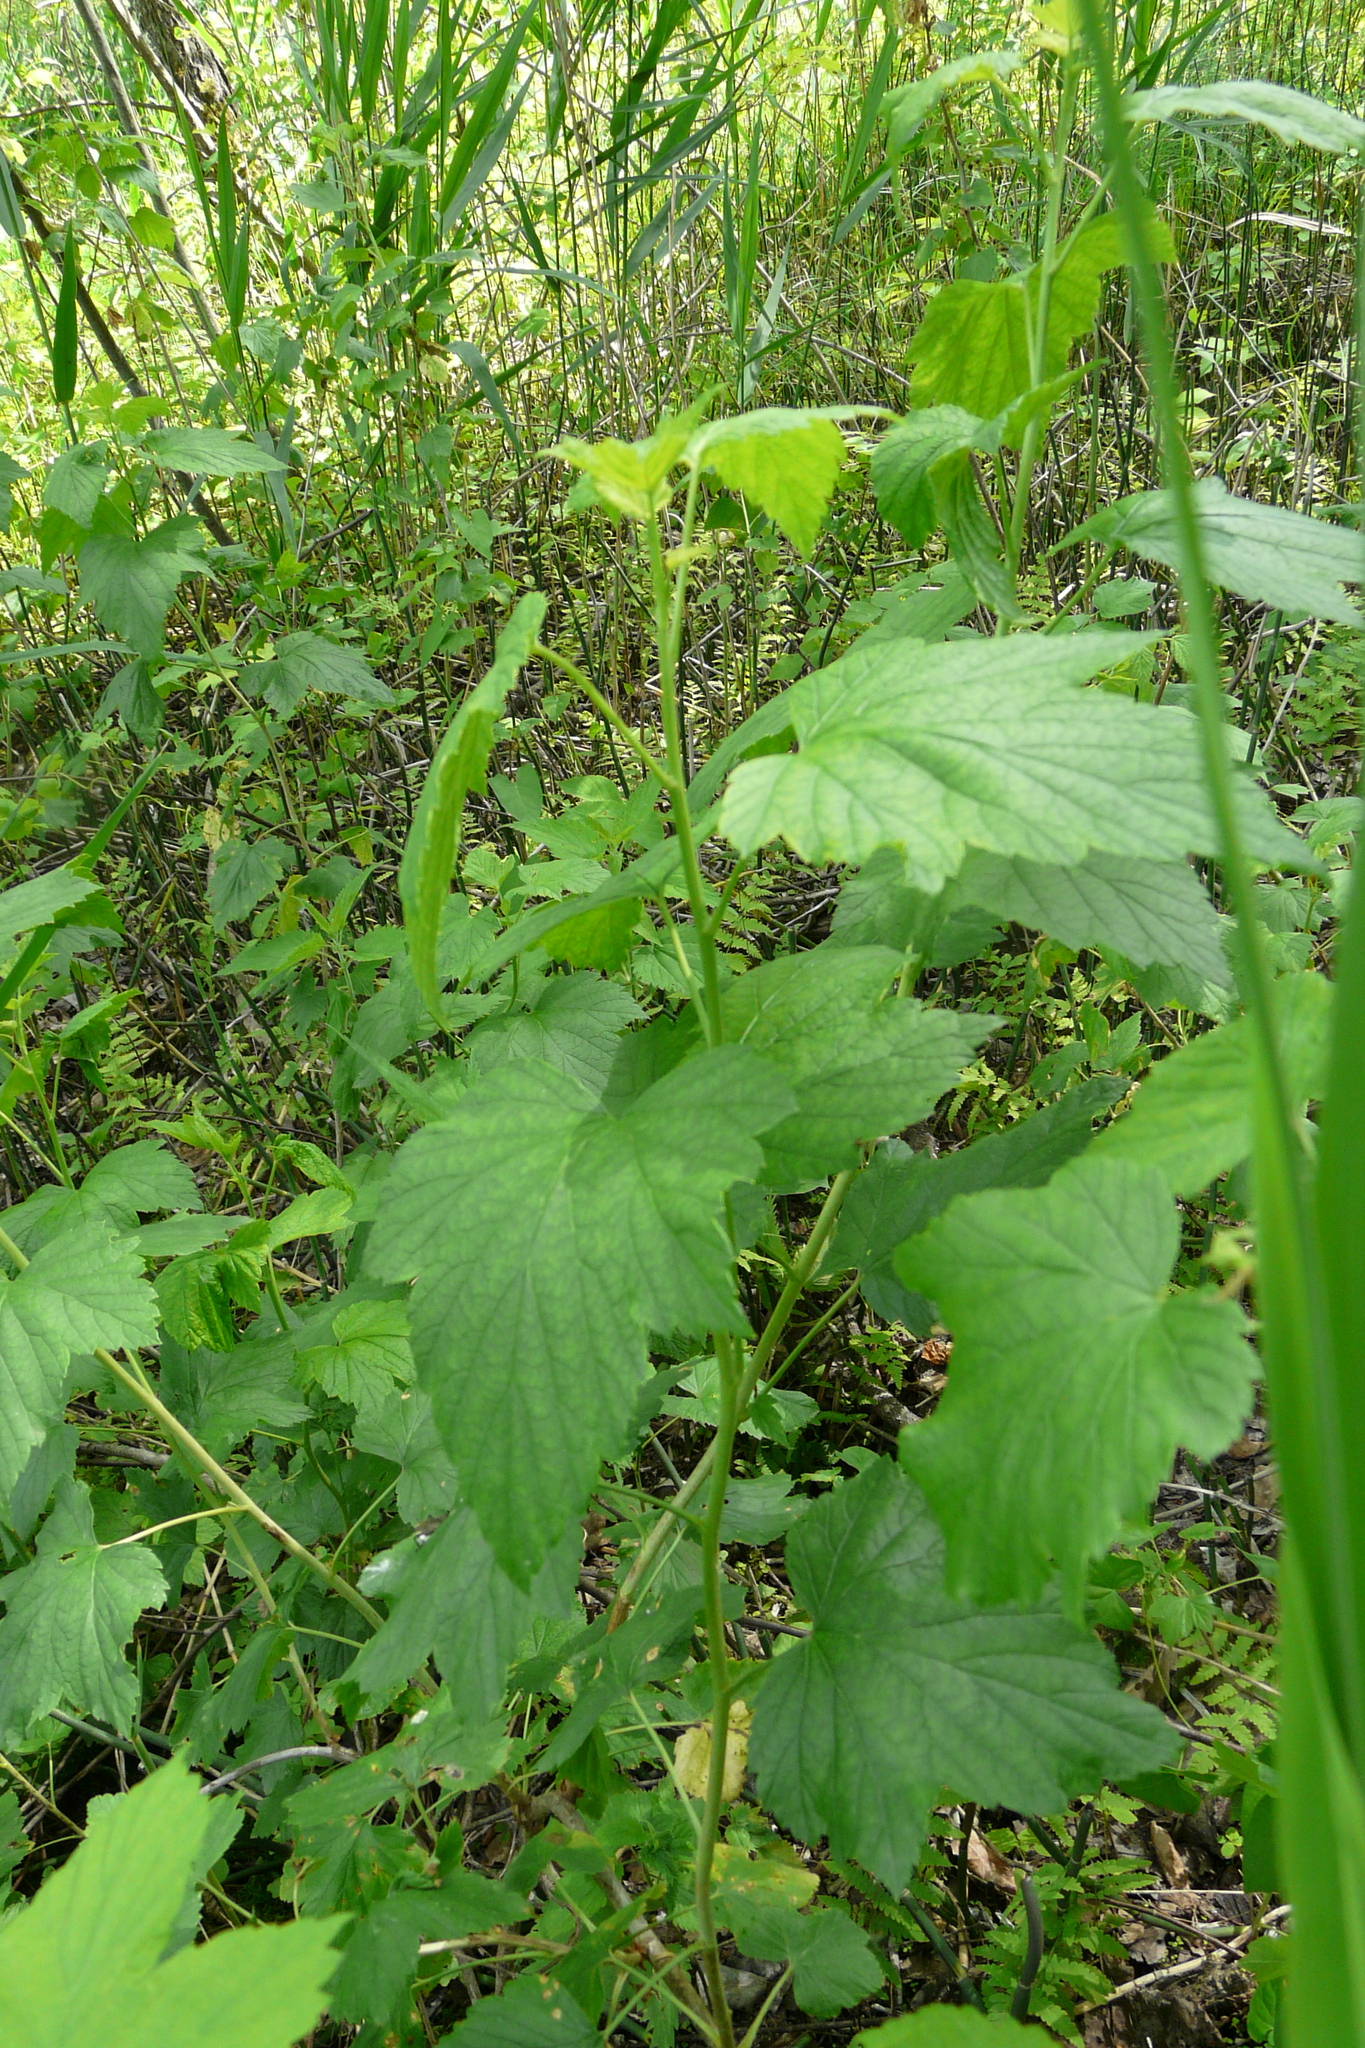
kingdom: Plantae
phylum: Tracheophyta
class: Magnoliopsida
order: Saxifragales
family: Grossulariaceae
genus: Ribes
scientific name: Ribes nigrum
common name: Black currant
